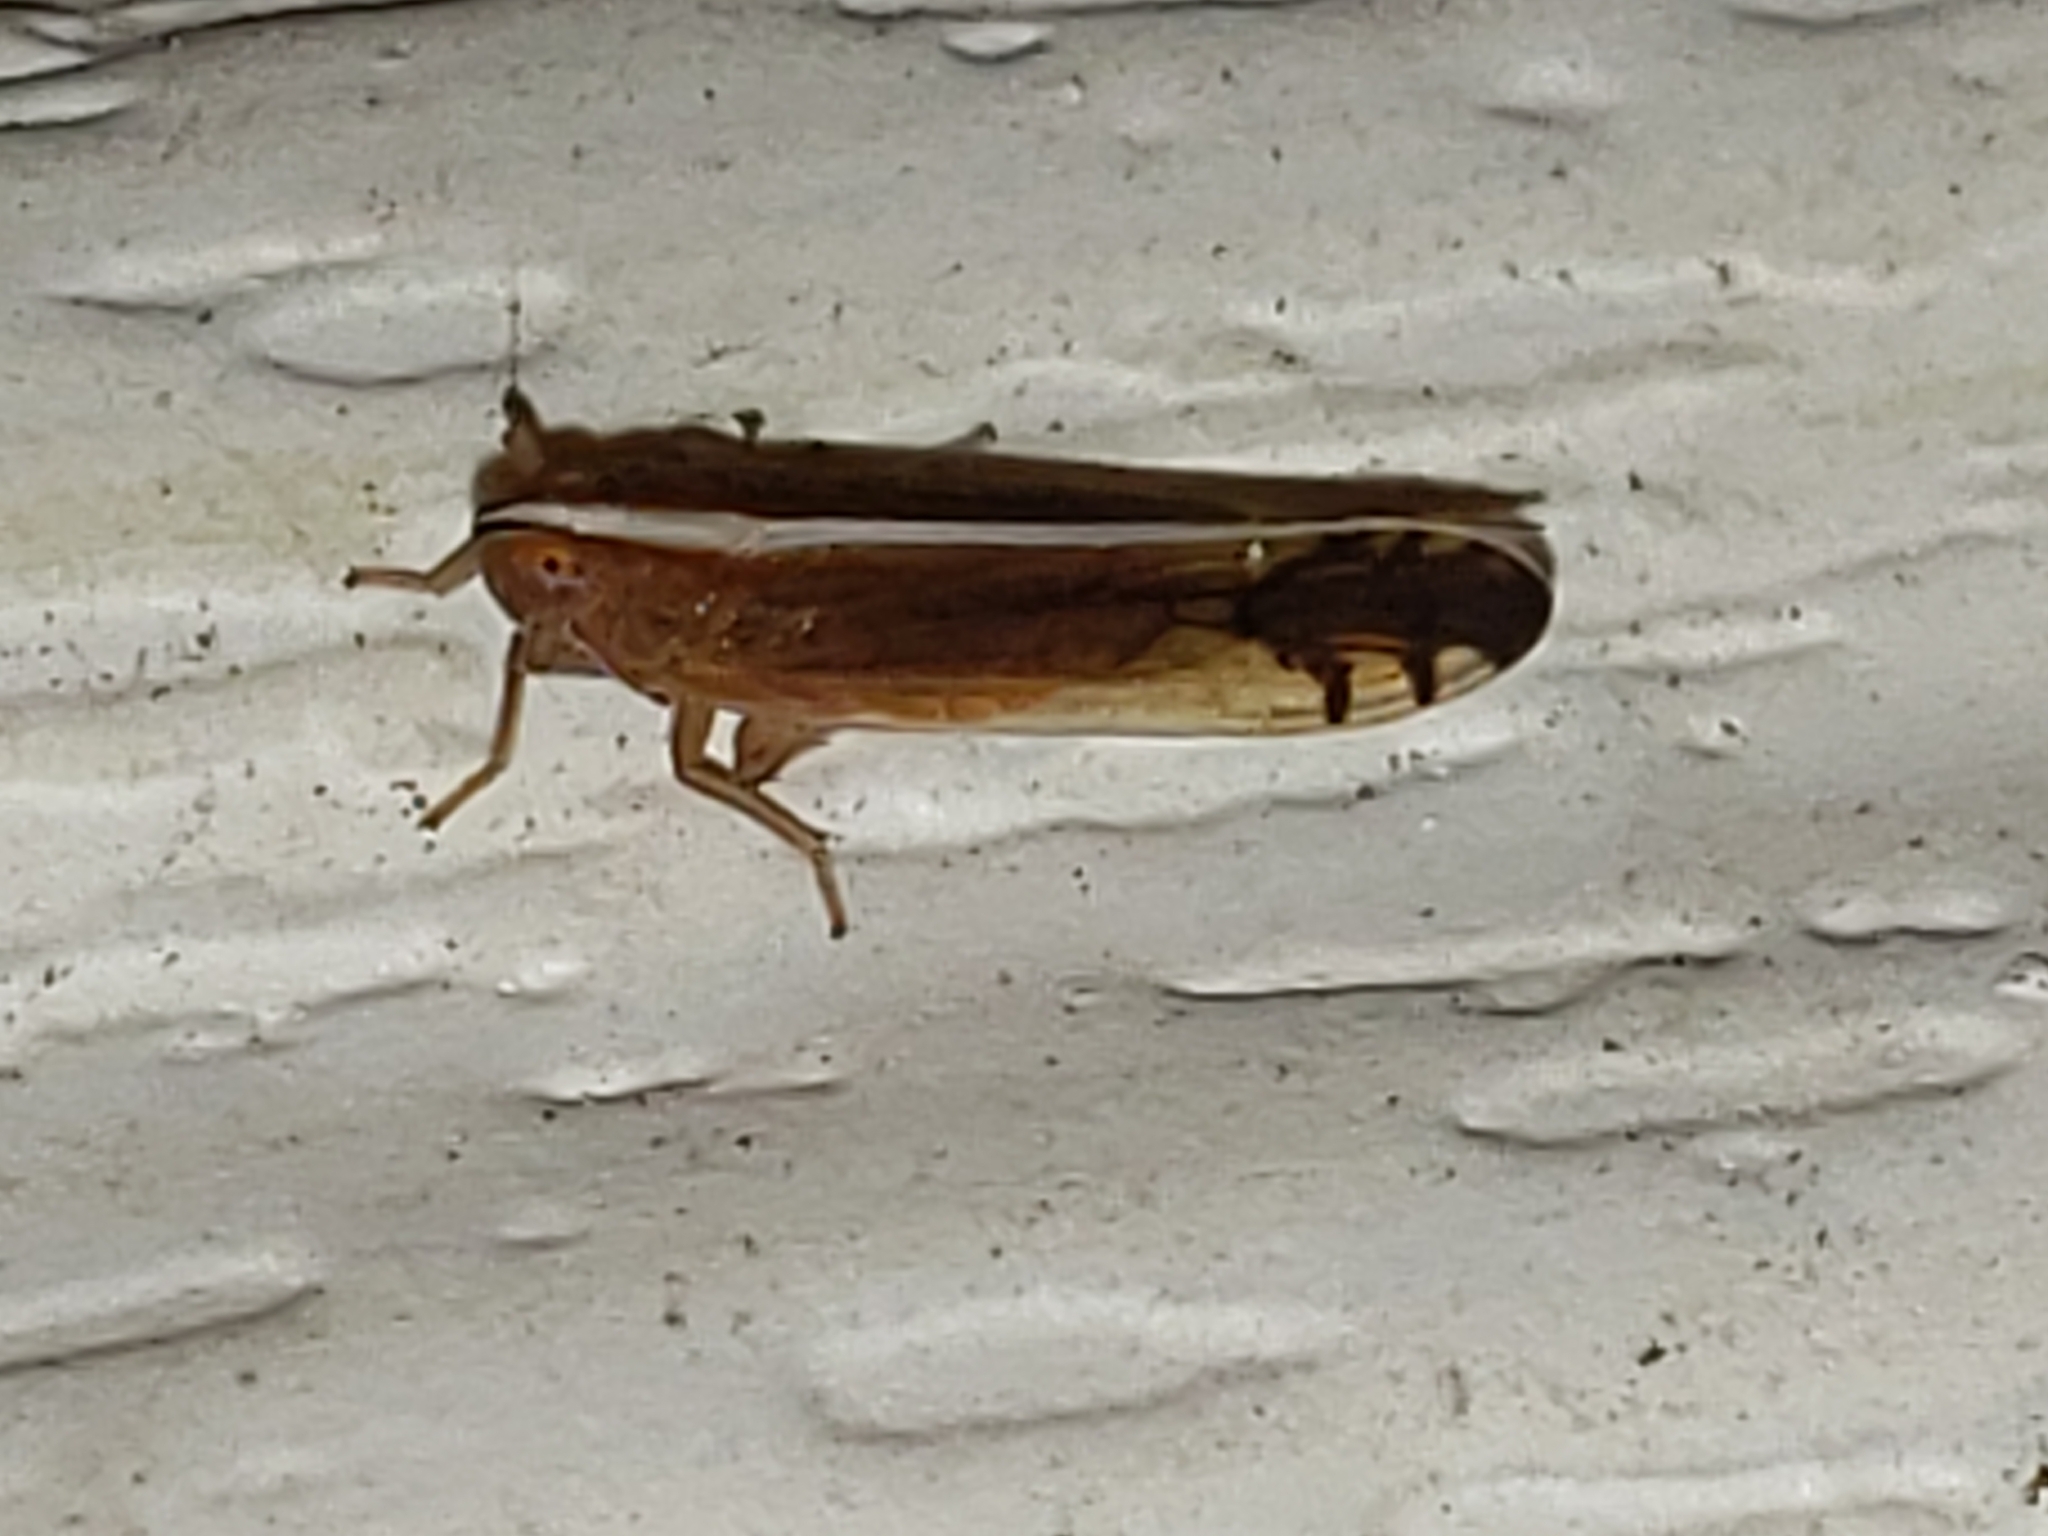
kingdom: Animalia
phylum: Arthropoda
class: Insecta
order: Hemiptera
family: Delphacidae
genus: Stenocranus
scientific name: Stenocranus brunneus
